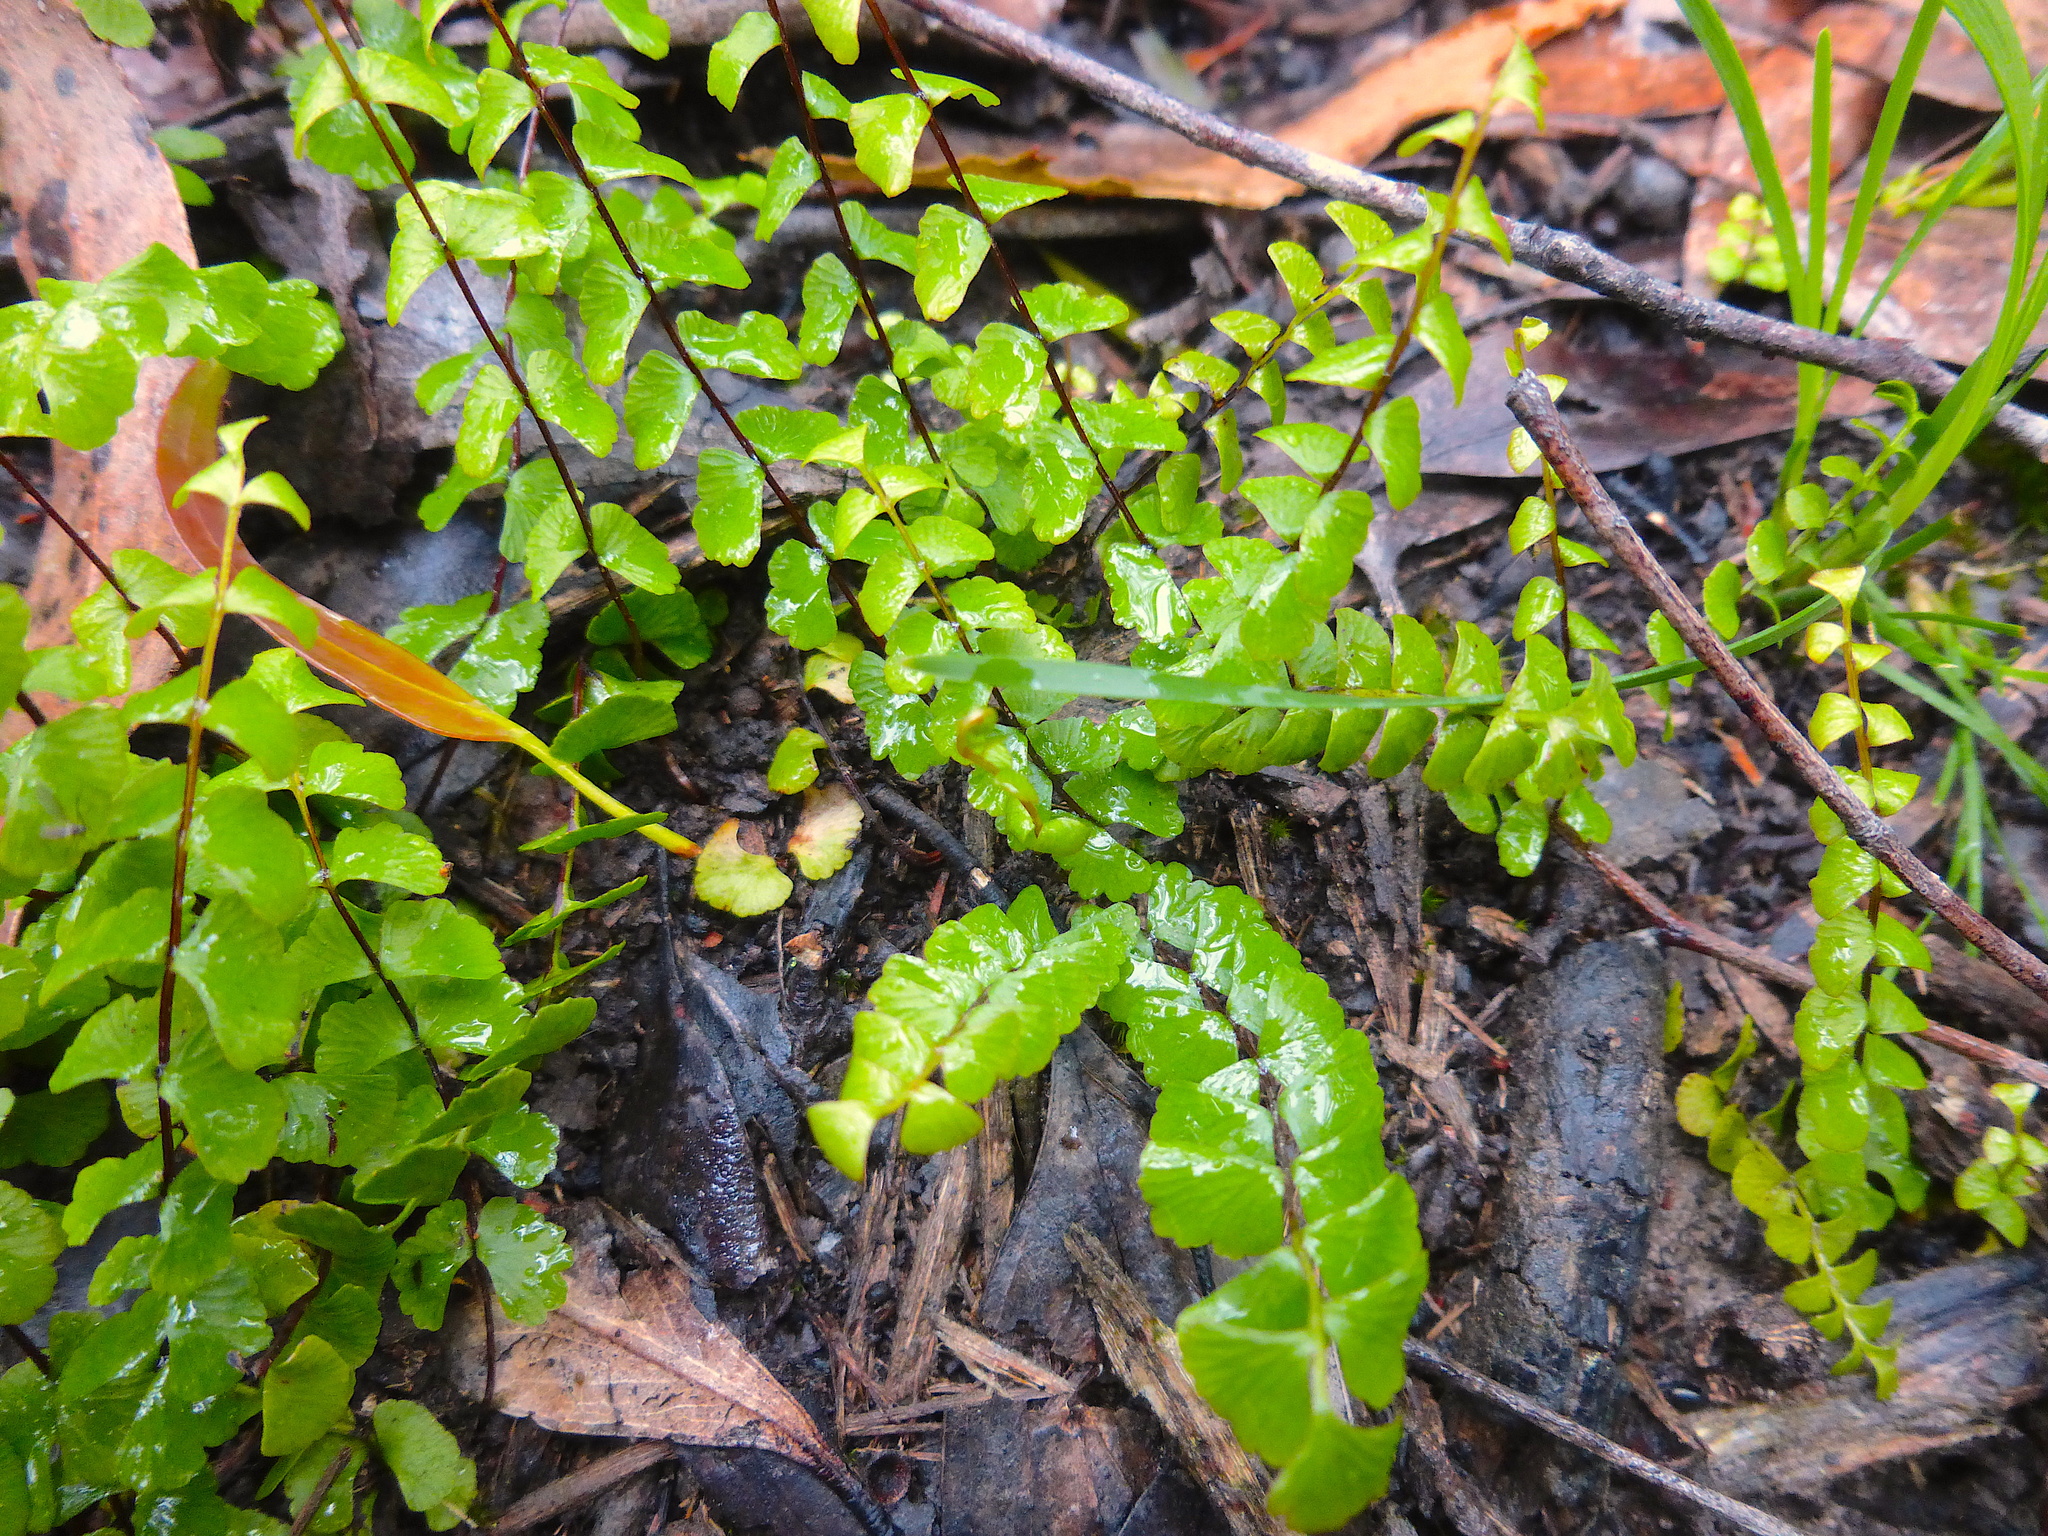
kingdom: Plantae
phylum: Tracheophyta
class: Polypodiopsida
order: Polypodiales
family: Lindsaeaceae
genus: Lindsaea
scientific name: Lindsaea linearis
